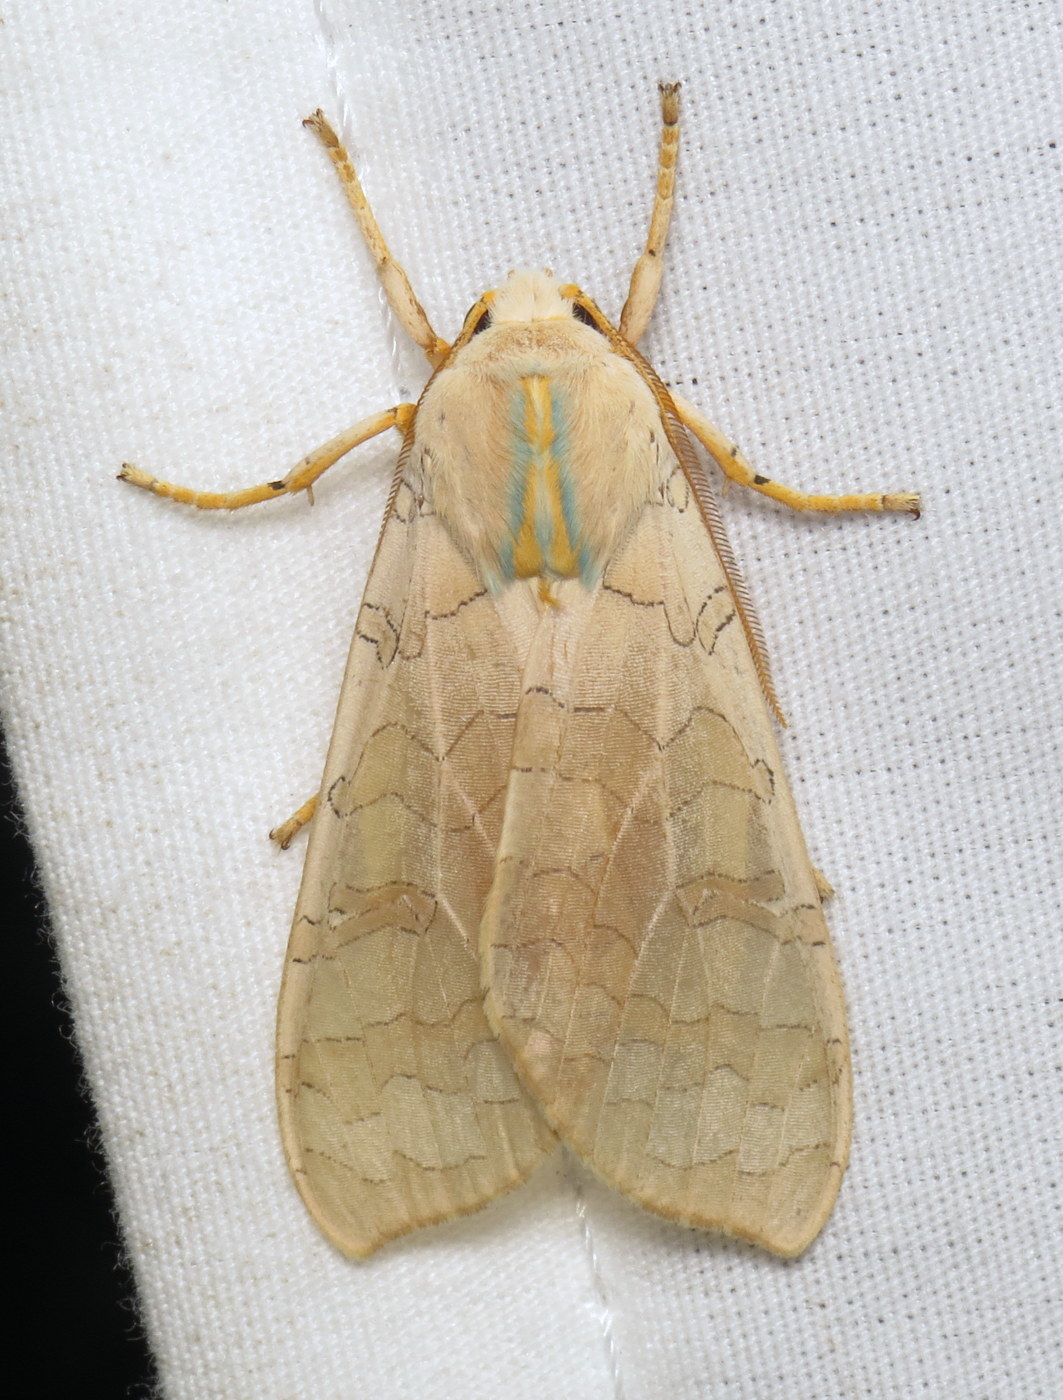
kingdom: Animalia
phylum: Arthropoda
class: Insecta
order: Lepidoptera
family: Erebidae
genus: Halysidota
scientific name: Halysidota
